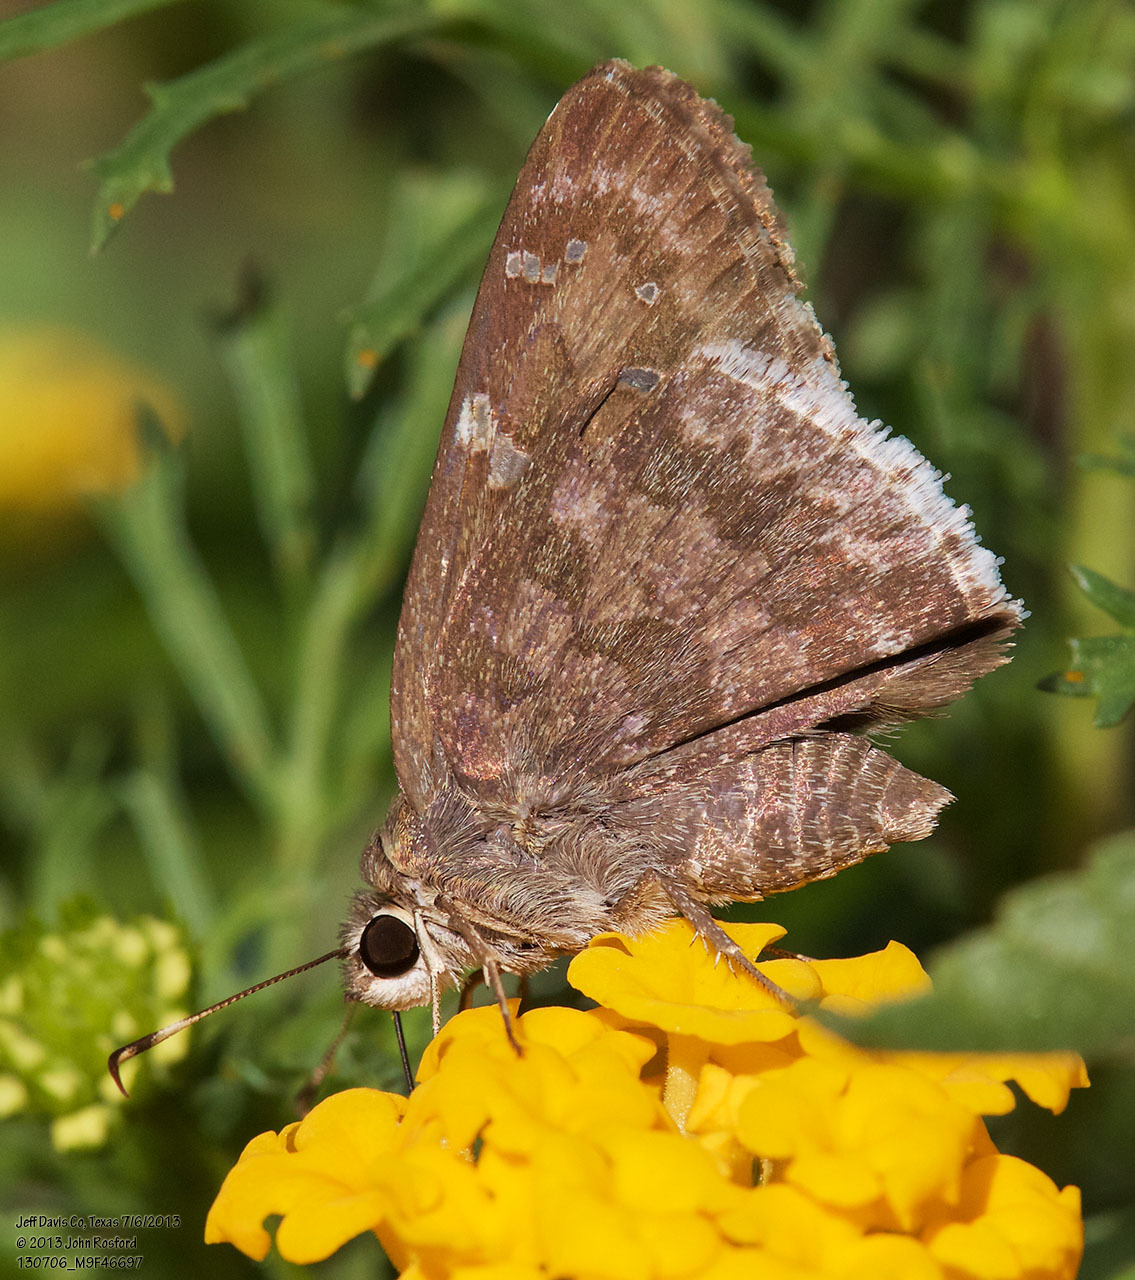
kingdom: Animalia
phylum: Arthropoda
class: Insecta
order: Lepidoptera
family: Hesperiidae
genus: Cogia
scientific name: Cogia hippalus
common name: Acacia skipper
